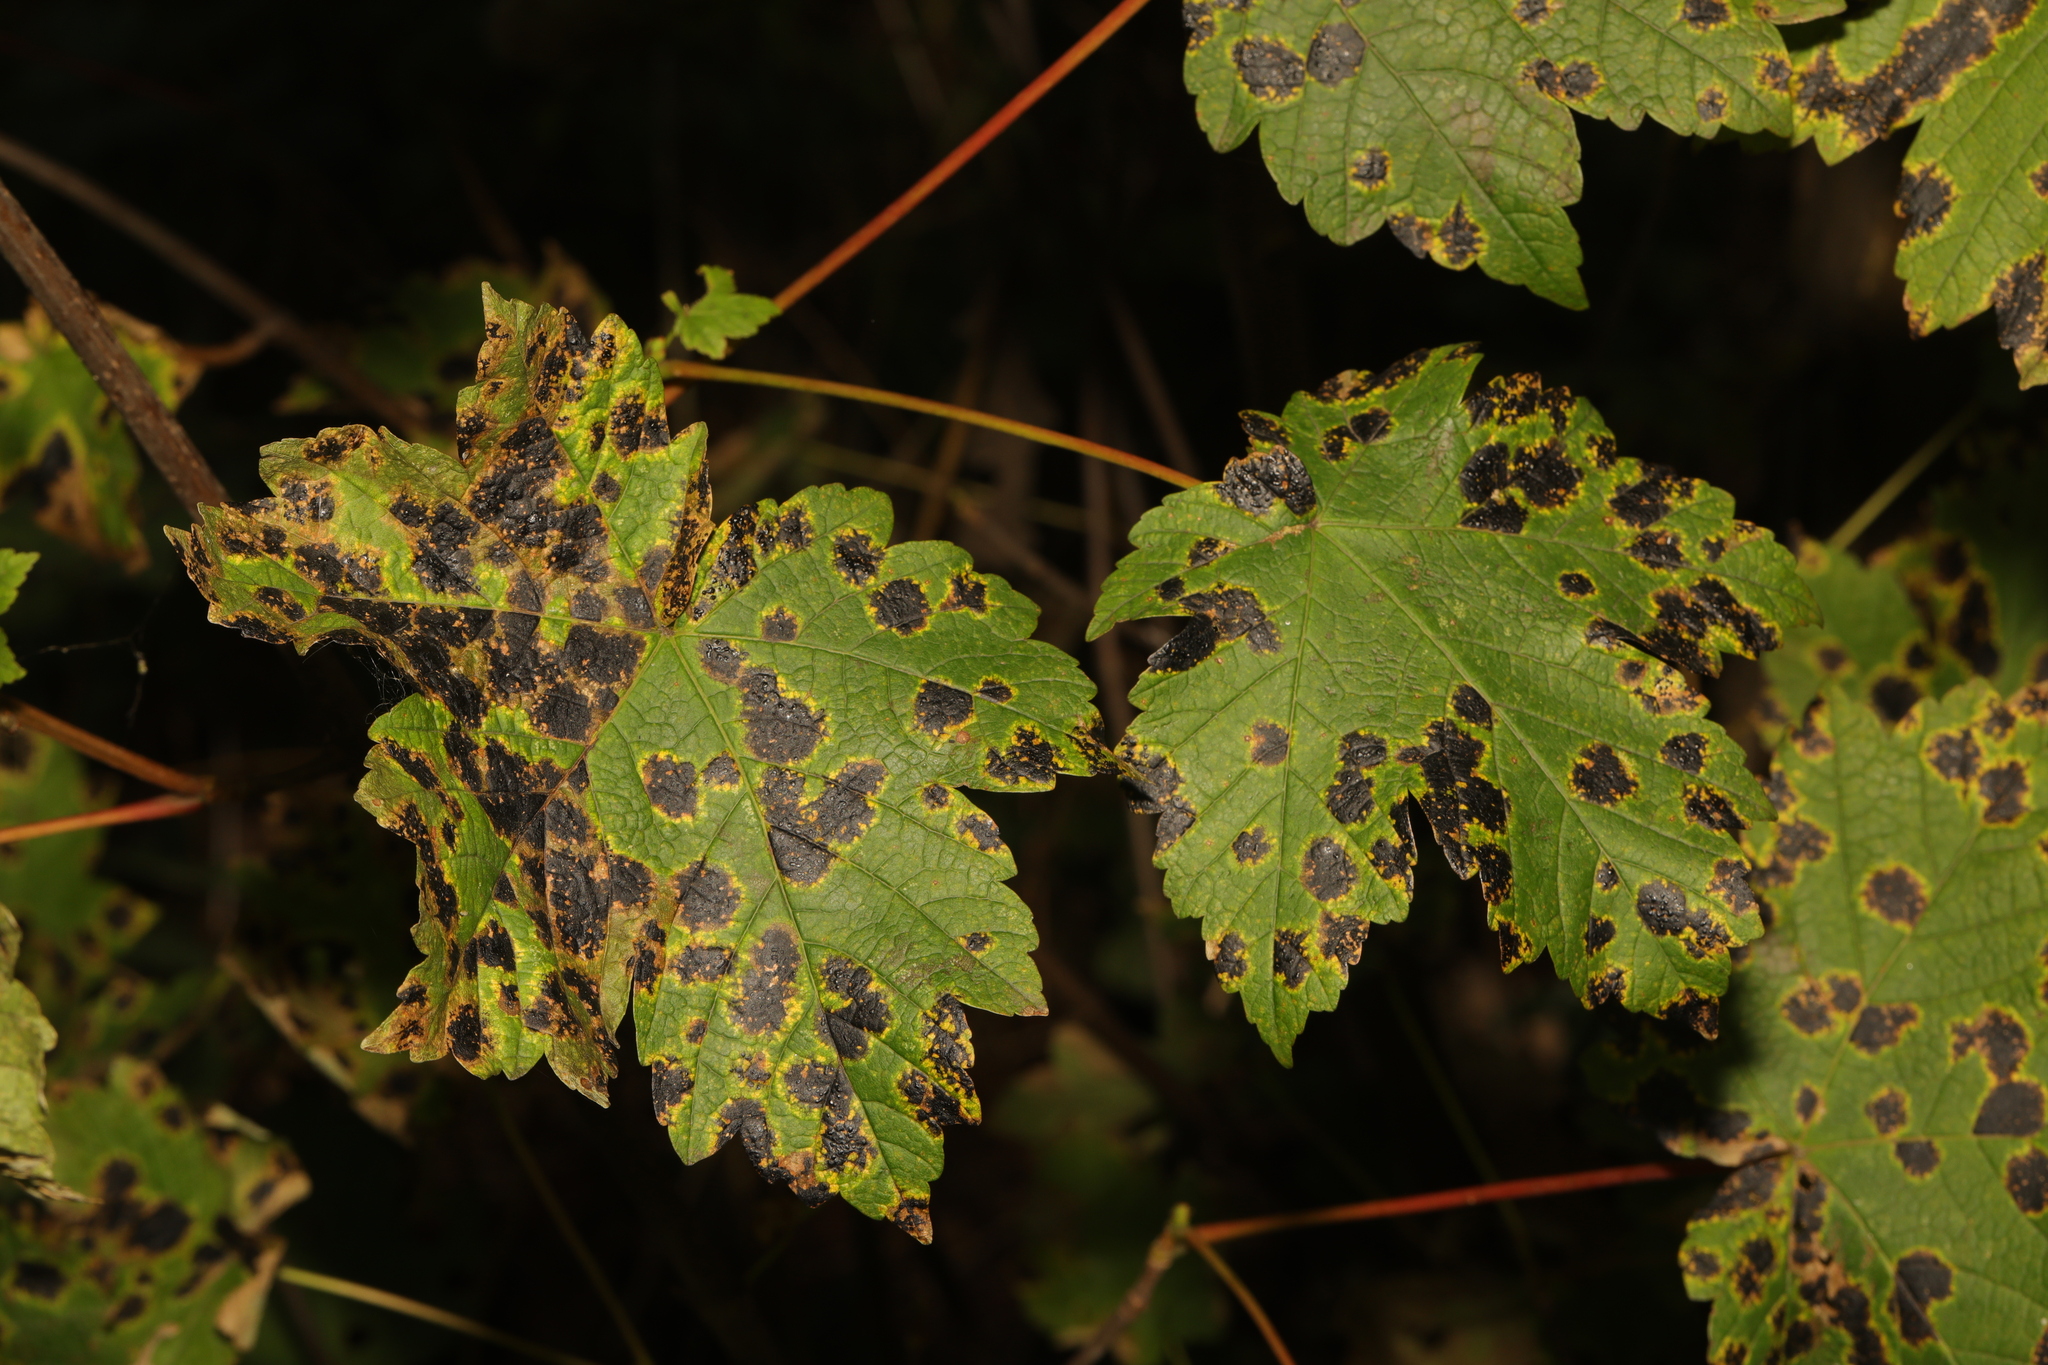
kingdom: Plantae
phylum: Tracheophyta
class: Magnoliopsida
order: Sapindales
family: Sapindaceae
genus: Acer
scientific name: Acer pseudoplatanus
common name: Sycamore
